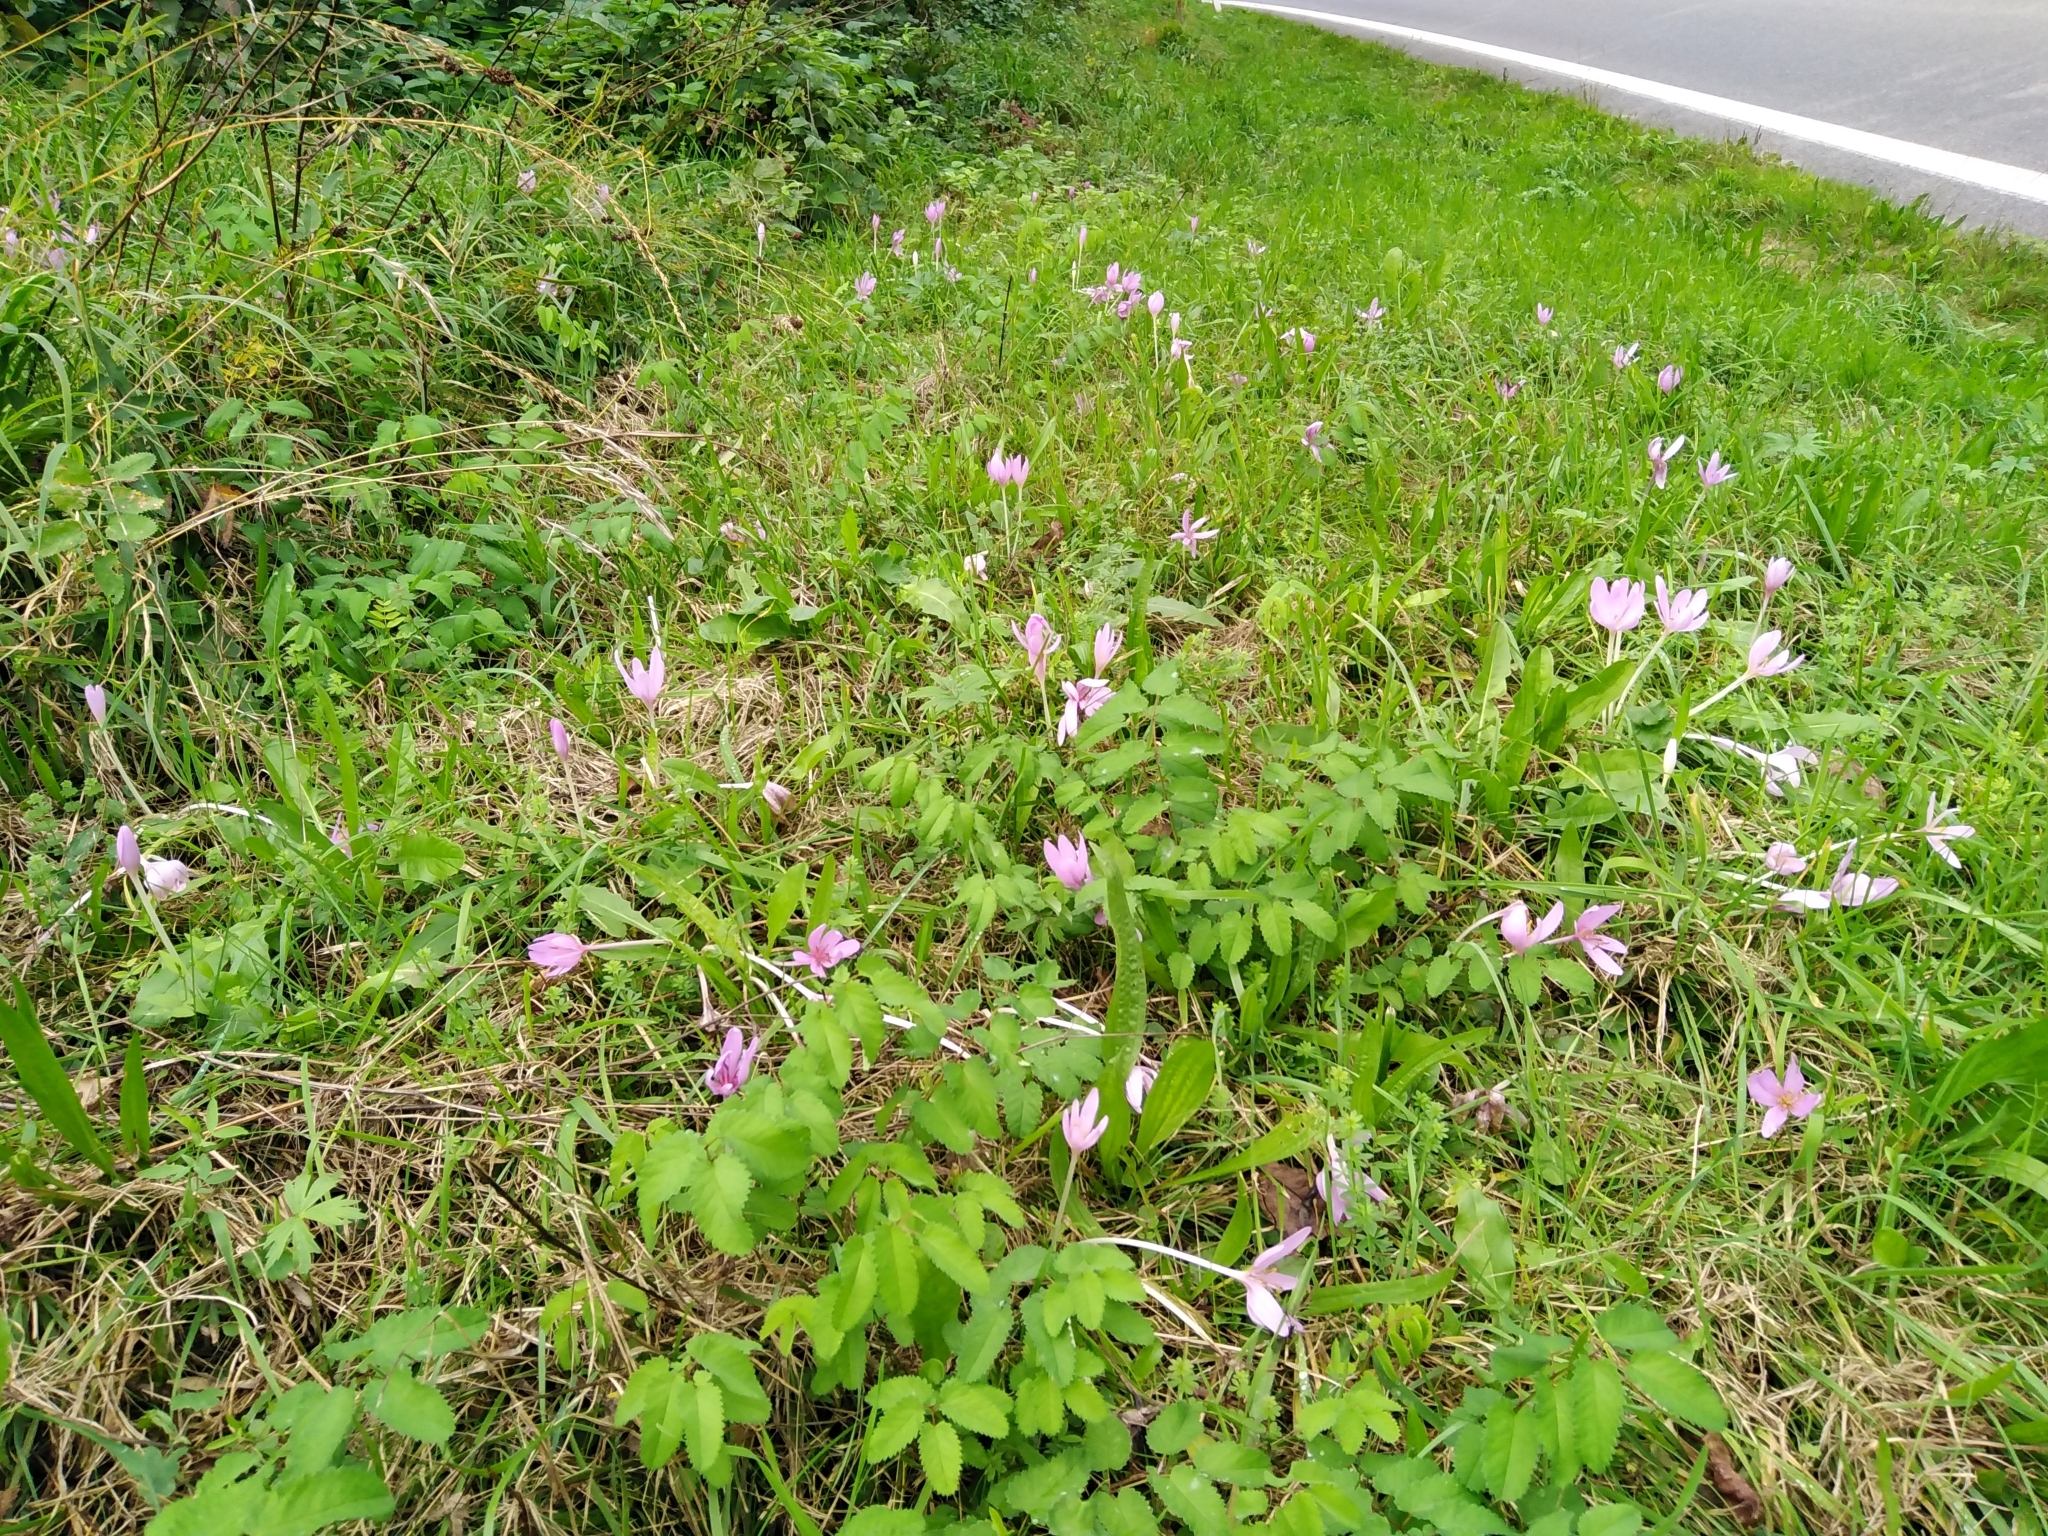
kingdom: Plantae
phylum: Tracheophyta
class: Liliopsida
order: Liliales
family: Colchicaceae
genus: Colchicum
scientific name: Colchicum autumnale
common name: Autumn crocus
